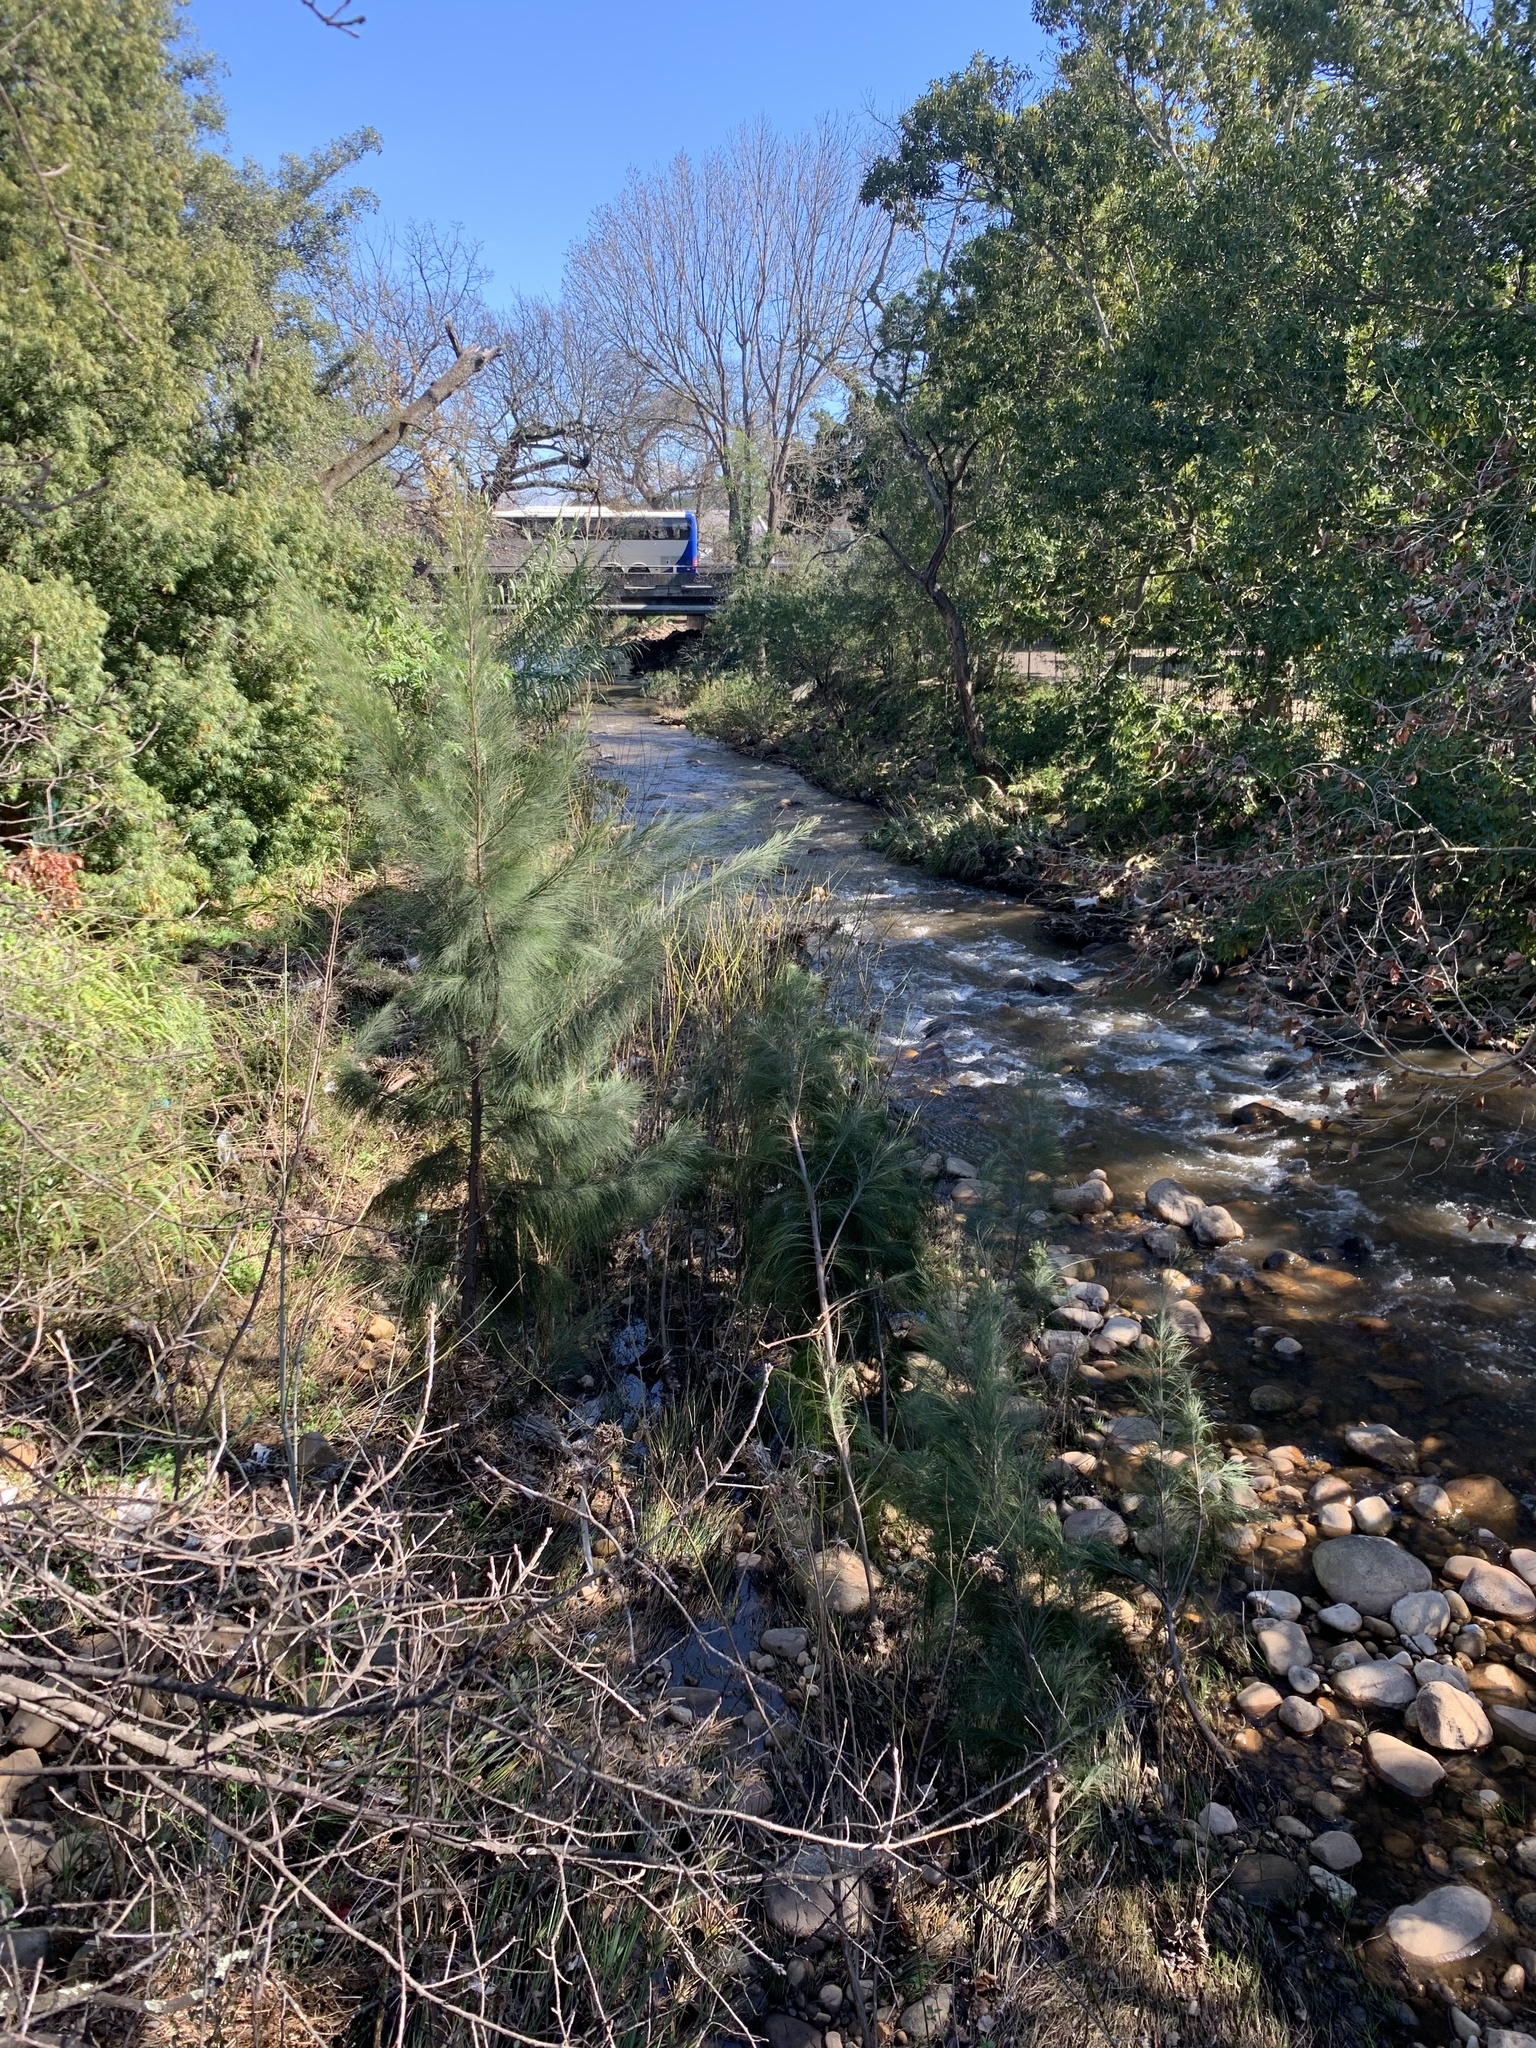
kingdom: Plantae
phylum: Tracheophyta
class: Magnoliopsida
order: Fagales
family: Casuarinaceae
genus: Casuarina
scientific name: Casuarina cunninghamiana
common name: River sheoak
